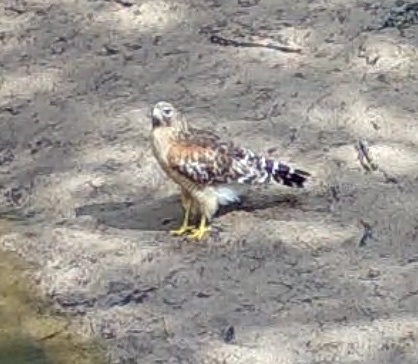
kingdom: Animalia
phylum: Chordata
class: Aves
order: Accipitriformes
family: Accipitridae
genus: Buteo
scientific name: Buteo lineatus
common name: Red-shouldered hawk
